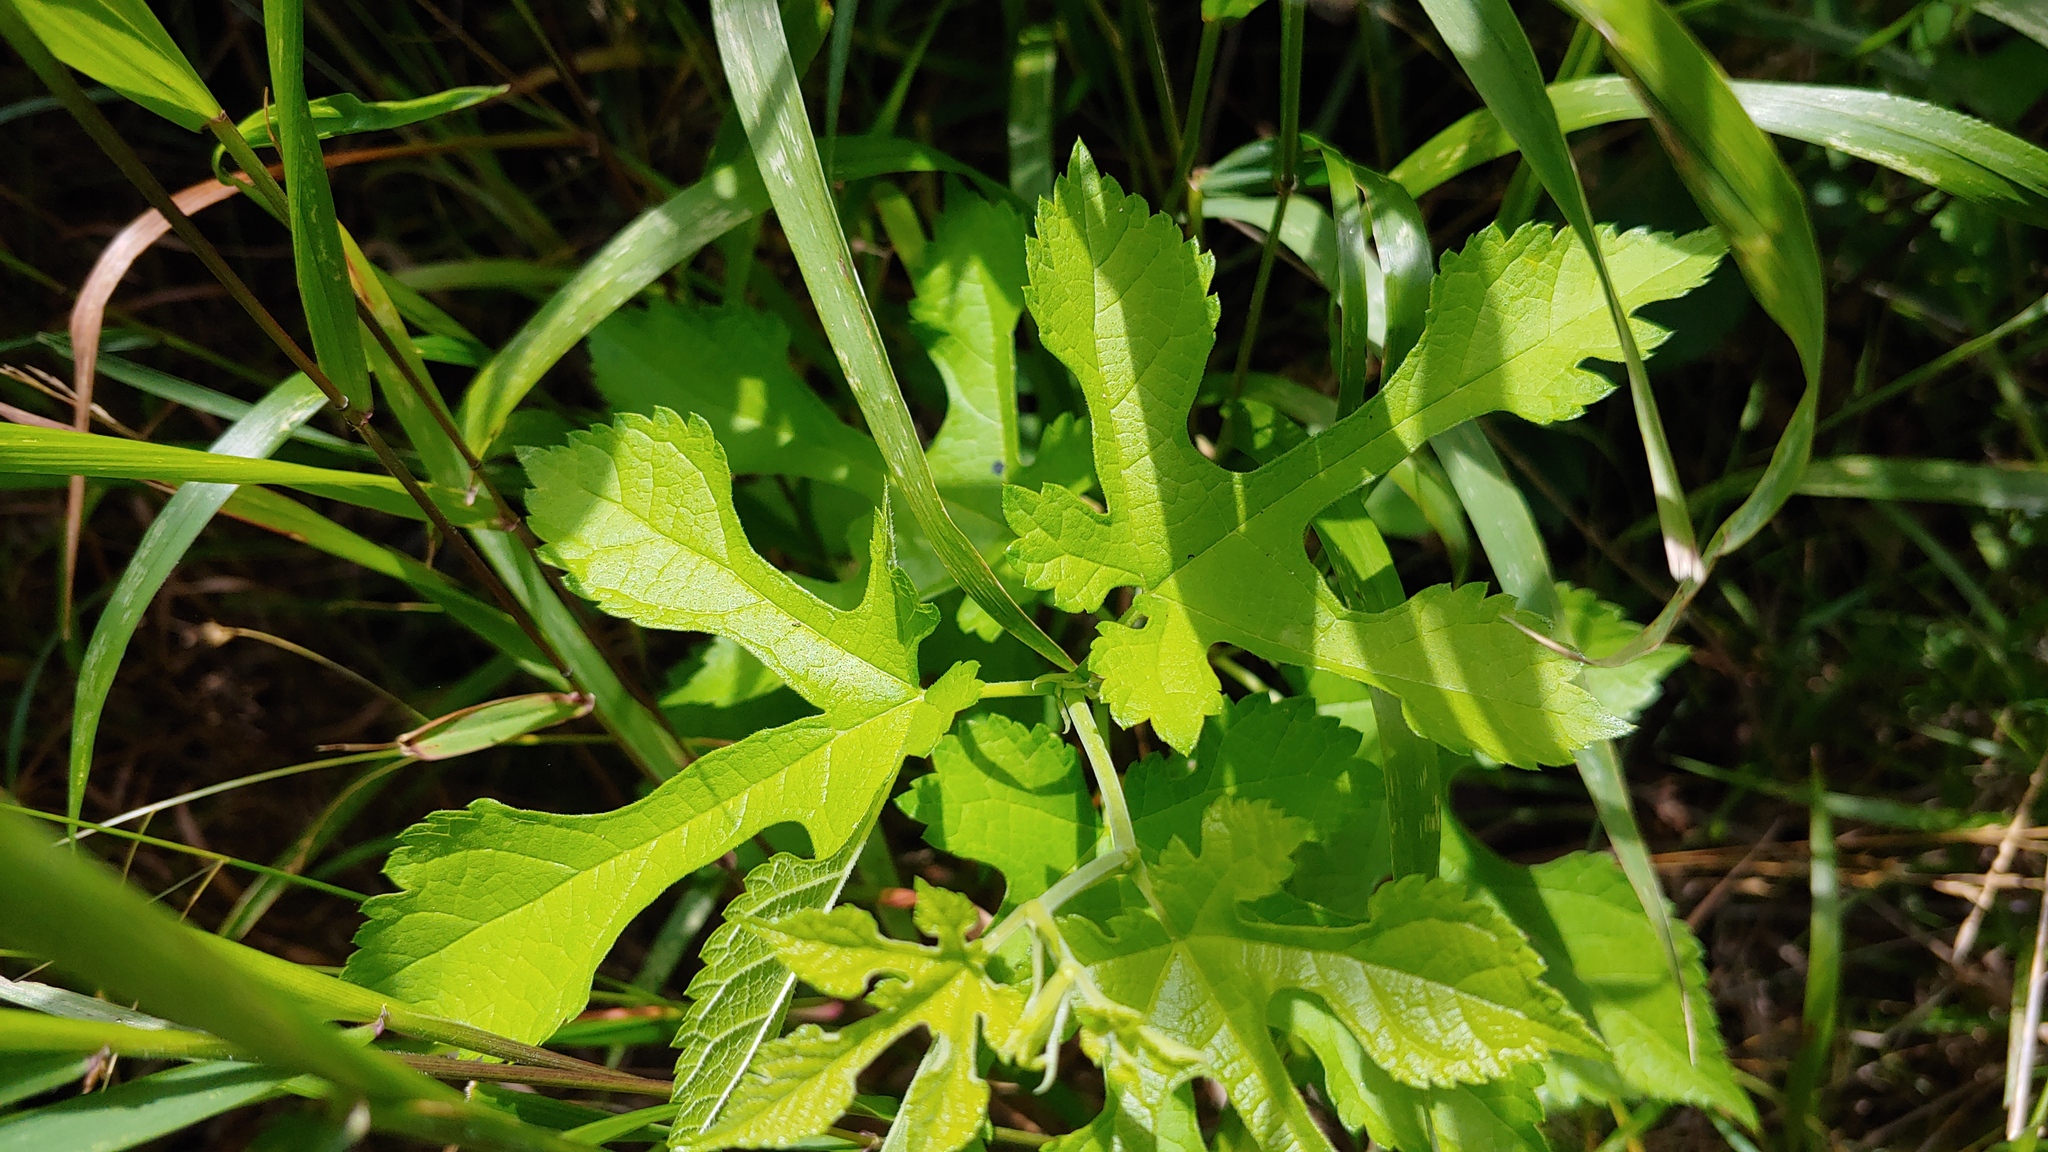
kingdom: Plantae
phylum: Tracheophyta
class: Magnoliopsida
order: Rosales
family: Moraceae
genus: Morus
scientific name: Morus alba
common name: White mulberry
